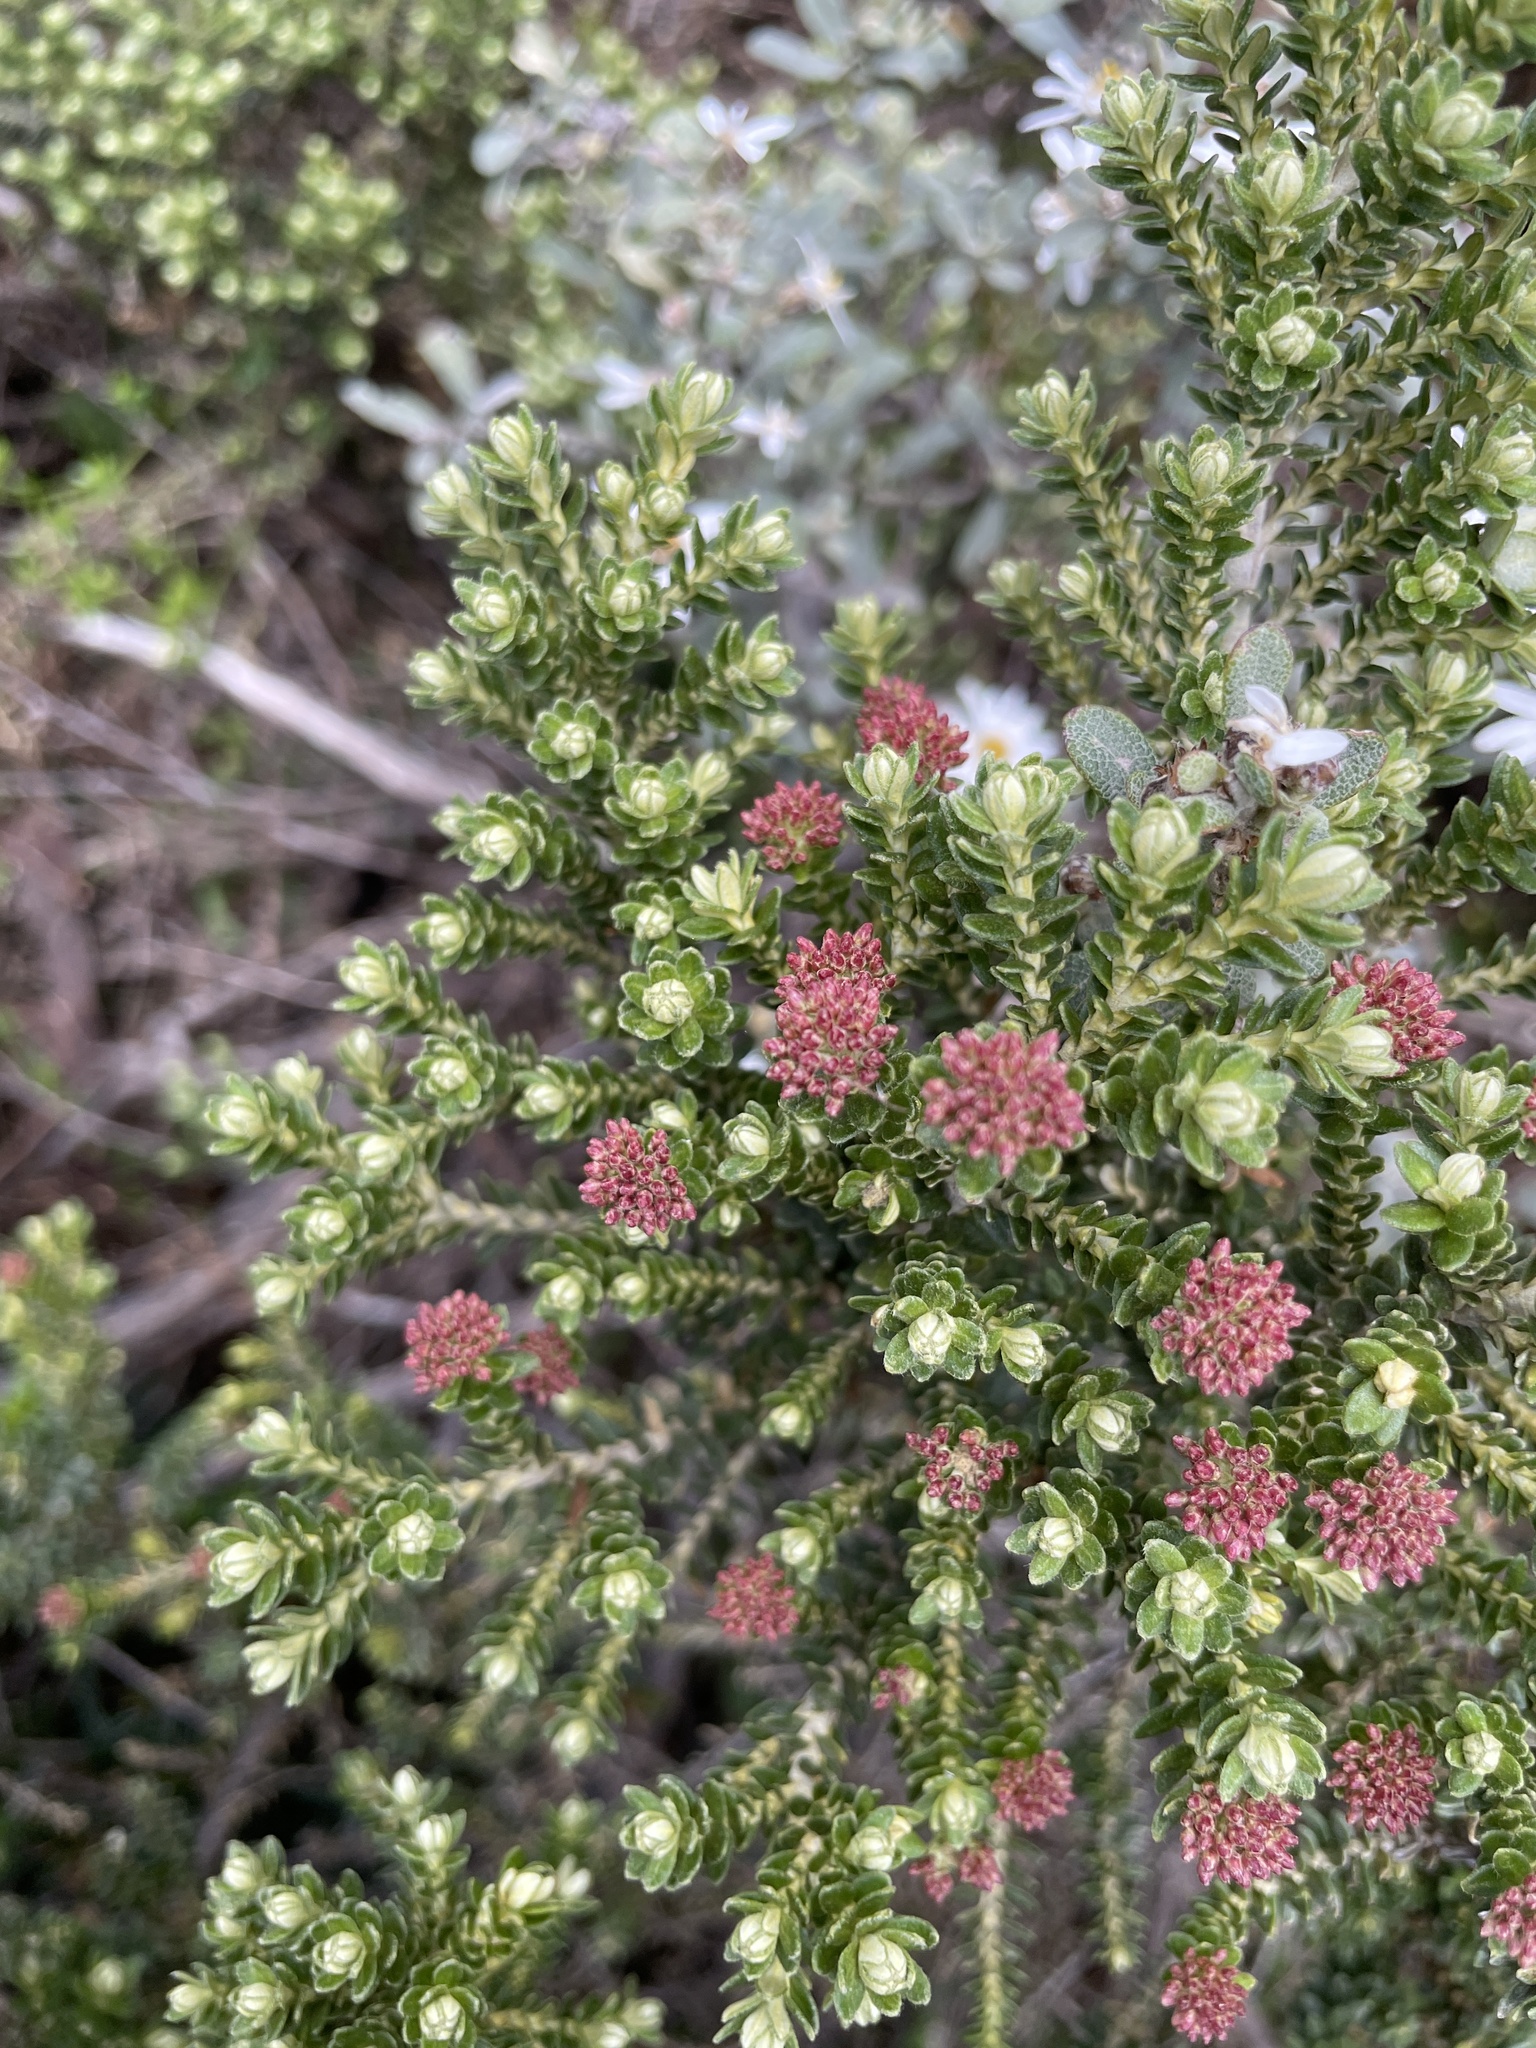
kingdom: Plantae
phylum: Tracheophyta
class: Magnoliopsida
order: Asterales
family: Asteraceae
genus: Ozothamnus
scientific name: Ozothamnus alpinus
